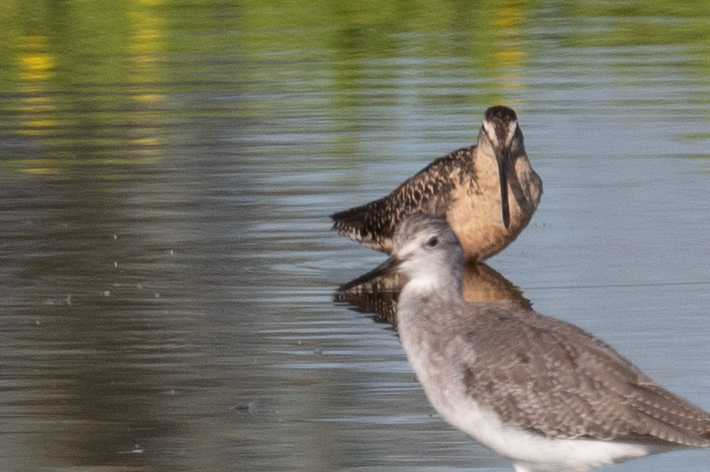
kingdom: Animalia
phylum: Chordata
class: Aves
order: Charadriiformes
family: Scolopacidae
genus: Limnodromus
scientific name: Limnodromus scolopaceus
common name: Long-billed dowitcher
